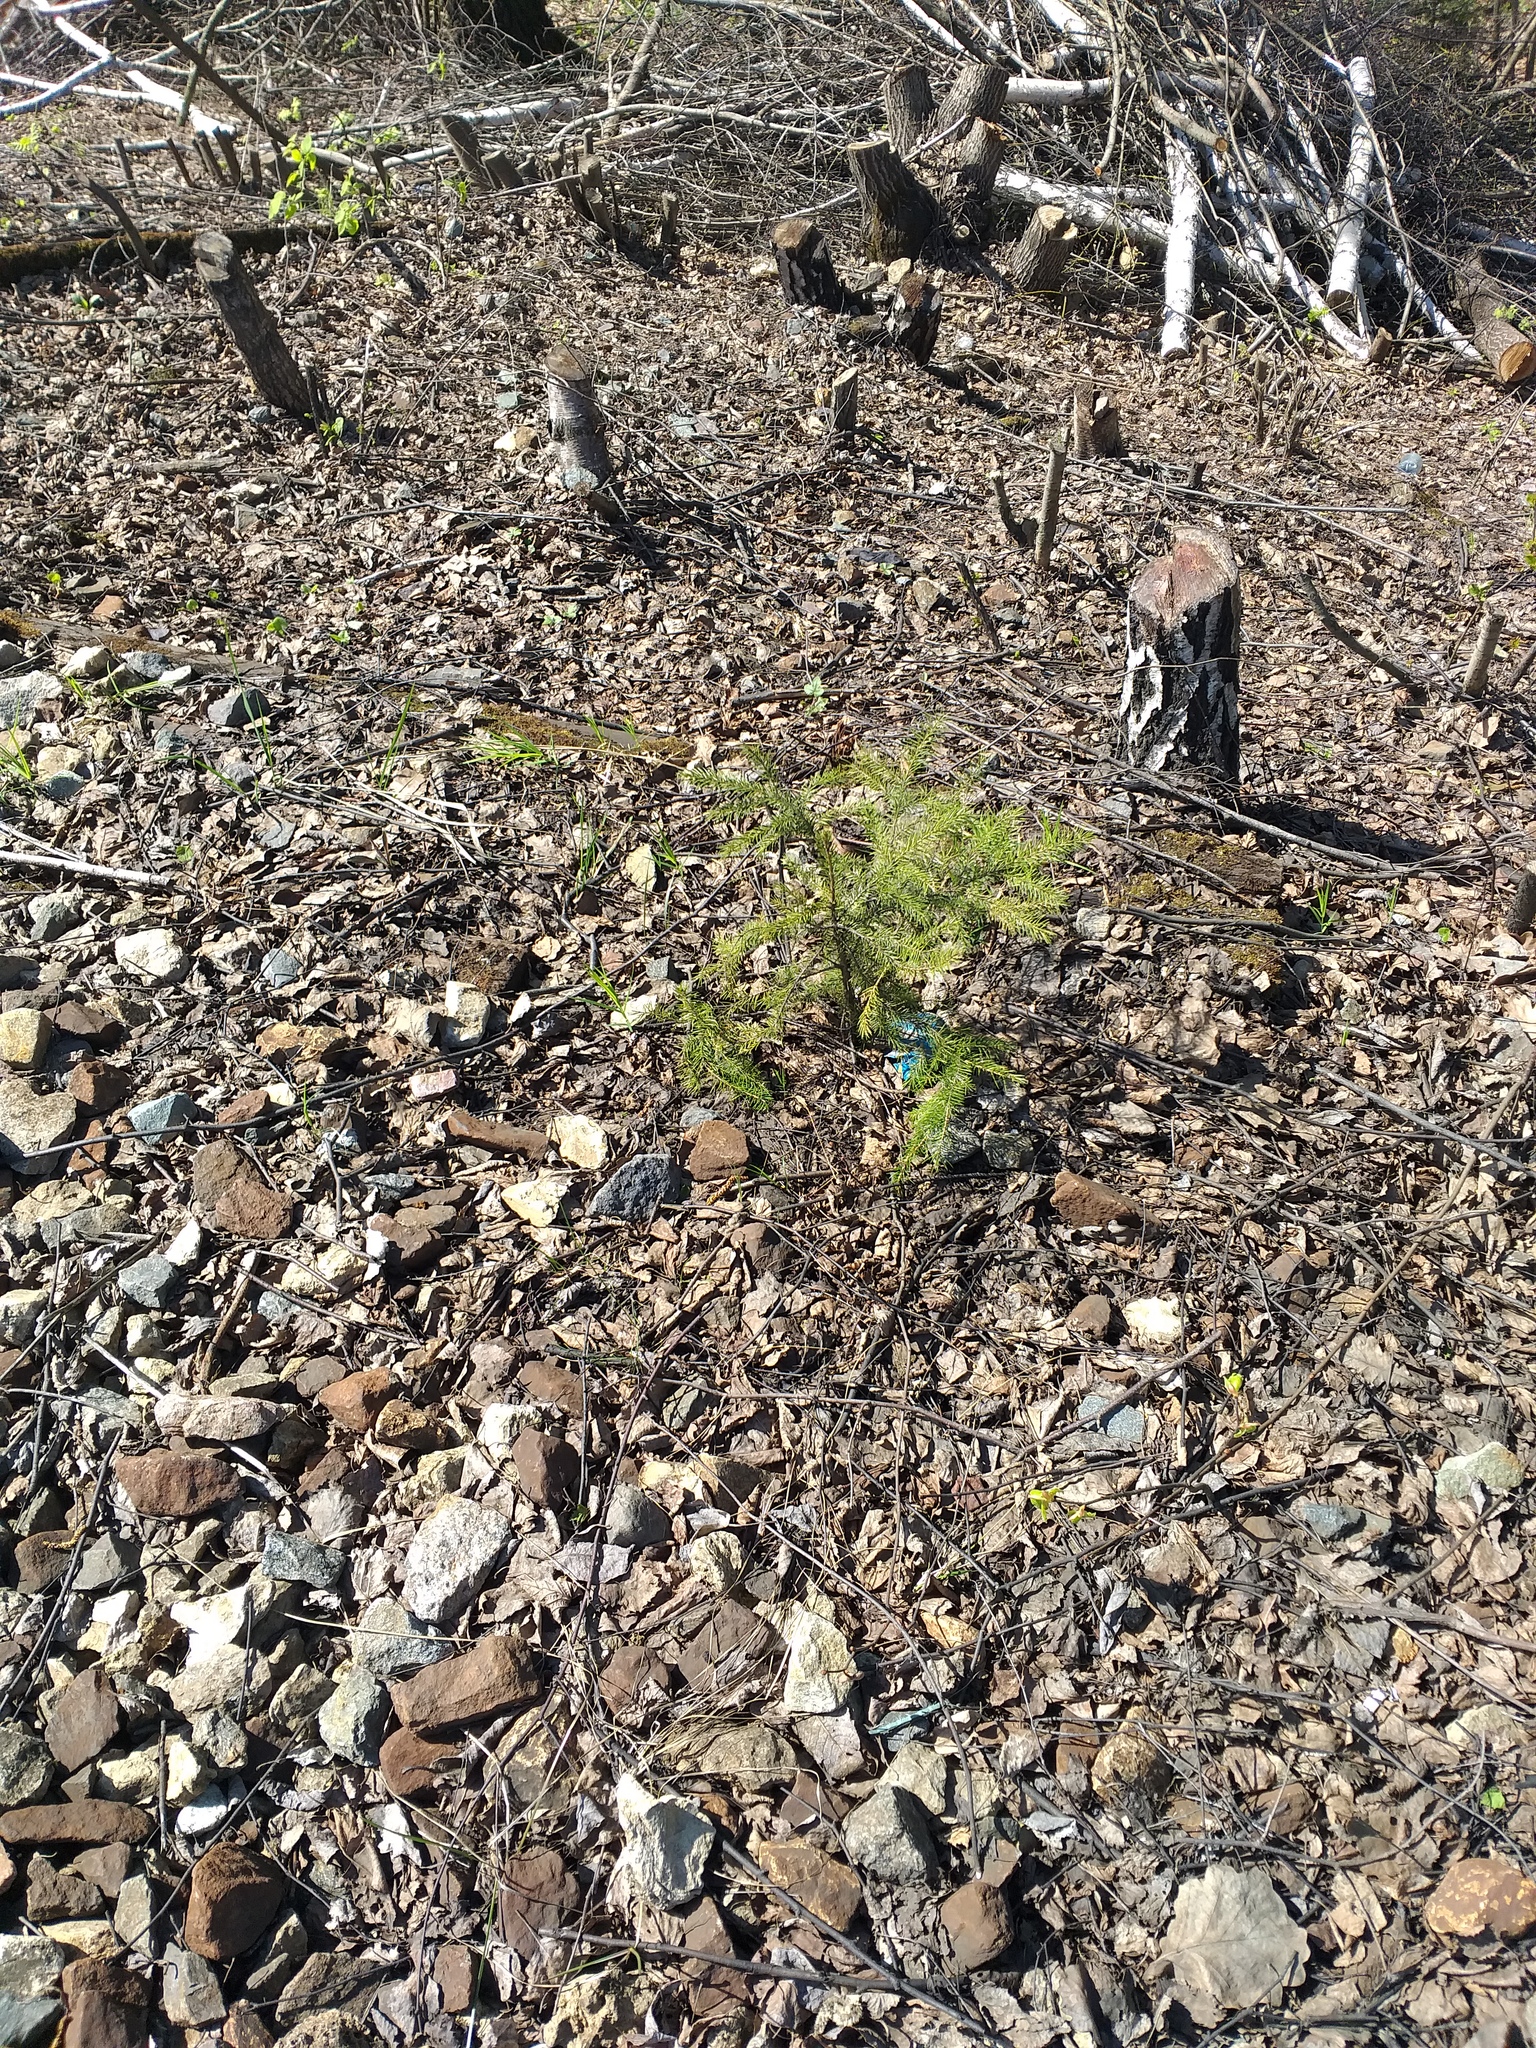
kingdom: Plantae
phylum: Tracheophyta
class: Pinopsida
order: Pinales
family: Pinaceae
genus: Picea
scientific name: Picea abies
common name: Norway spruce
